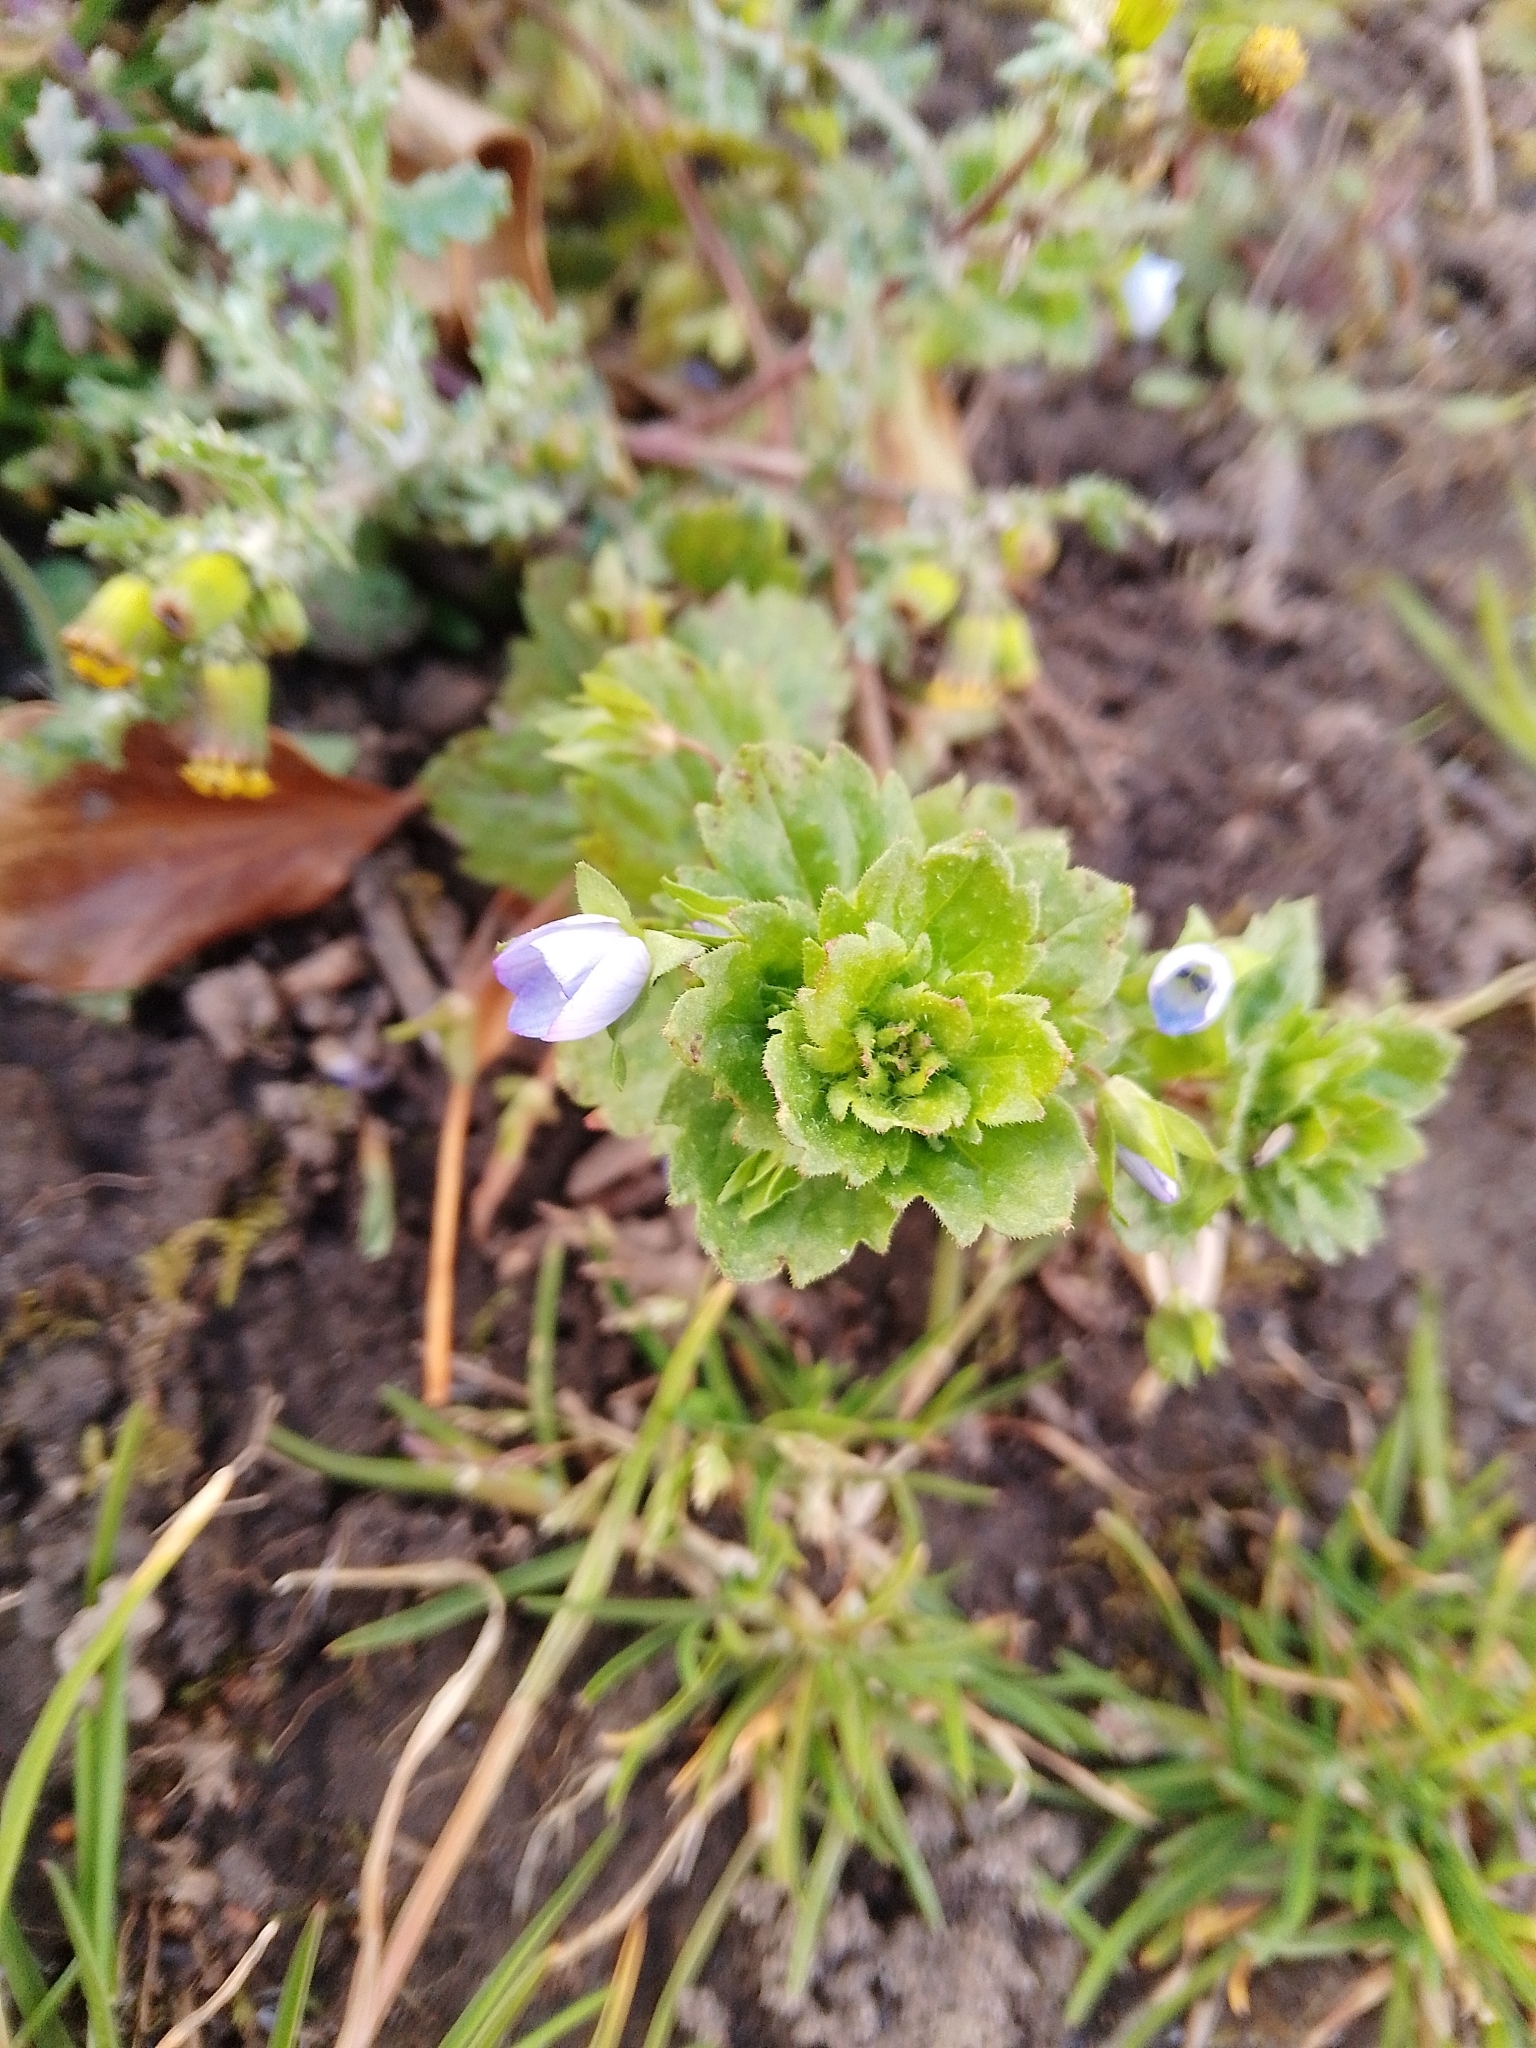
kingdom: Plantae
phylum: Tracheophyta
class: Magnoliopsida
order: Lamiales
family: Plantaginaceae
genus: Veronica
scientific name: Veronica persica
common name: Common field-speedwell
